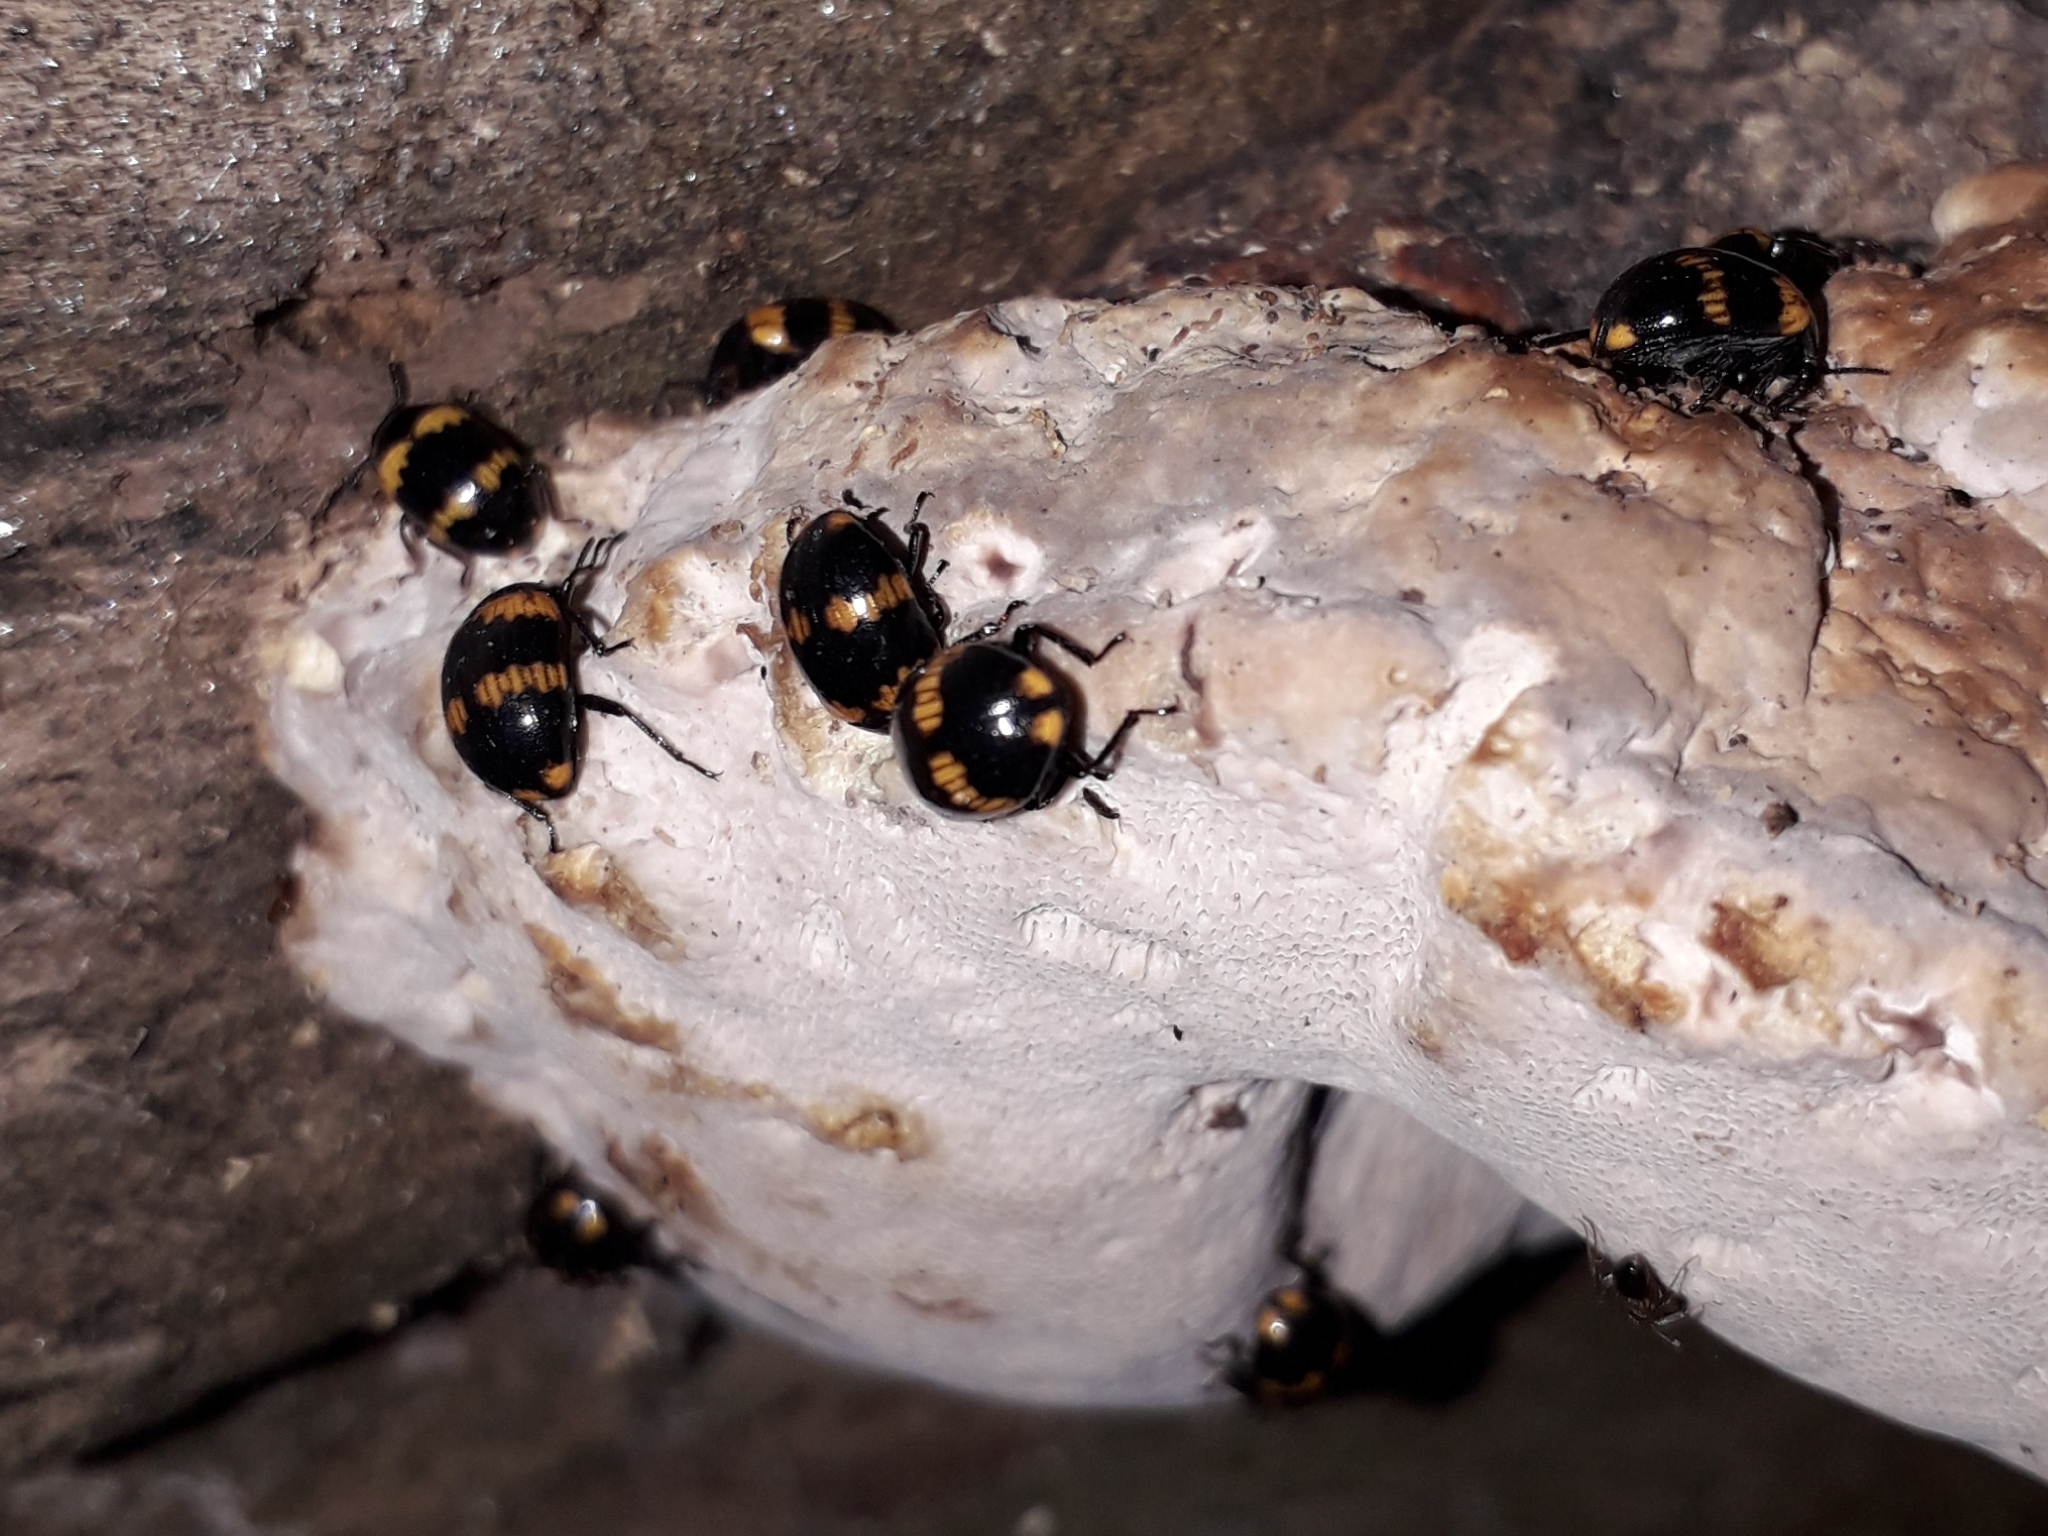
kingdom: Animalia
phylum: Arthropoda
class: Insecta
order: Coleoptera
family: Tenebrionidae
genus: Diaperis
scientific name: Diaperis boleti
